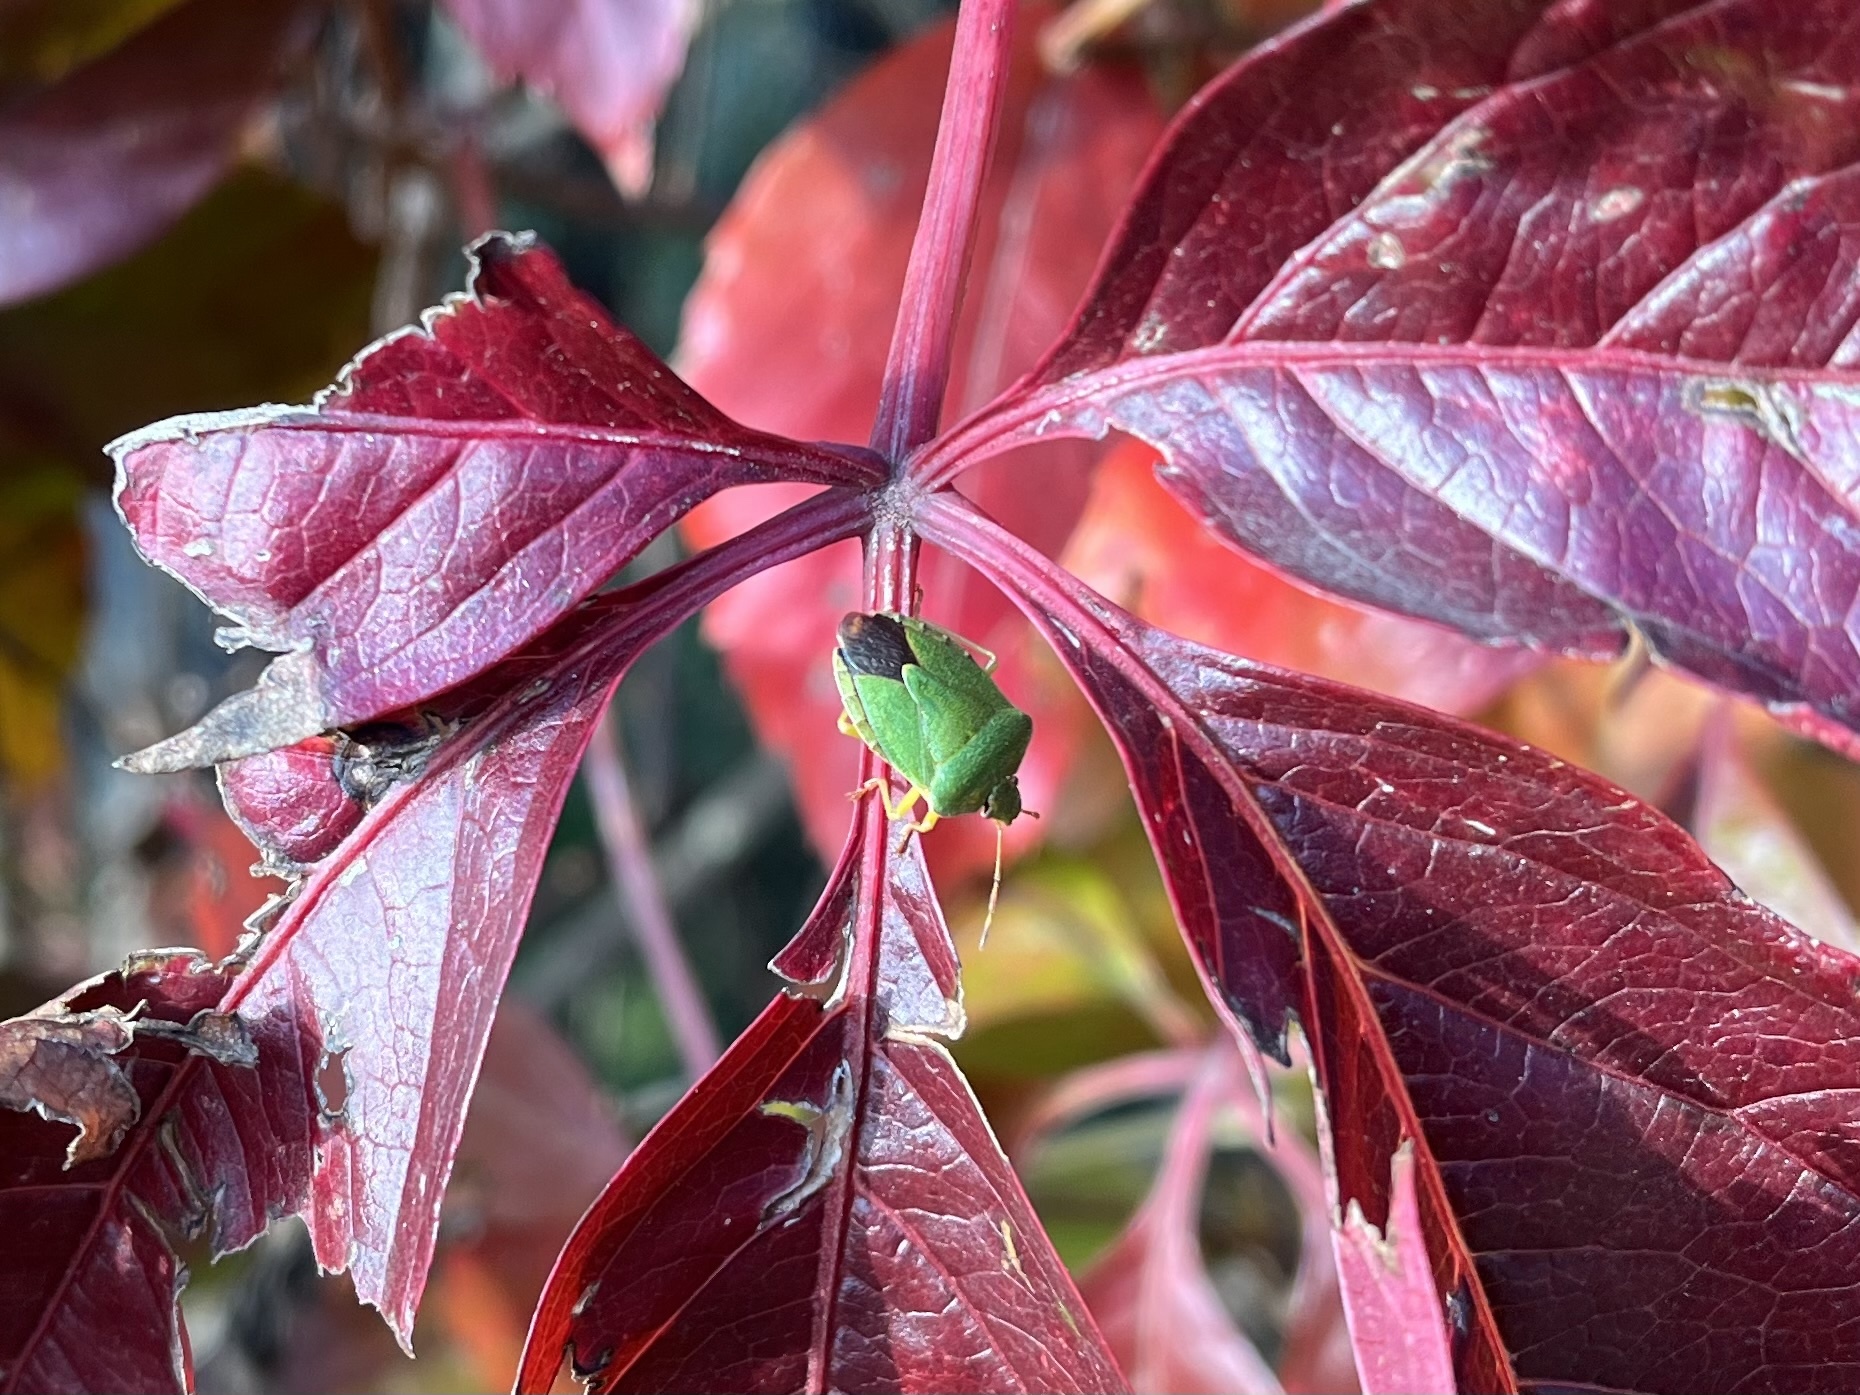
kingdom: Animalia
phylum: Arthropoda
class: Insecta
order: Hemiptera
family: Pentatomidae
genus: Palomena
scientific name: Palomena prasina
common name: Green shieldbug
